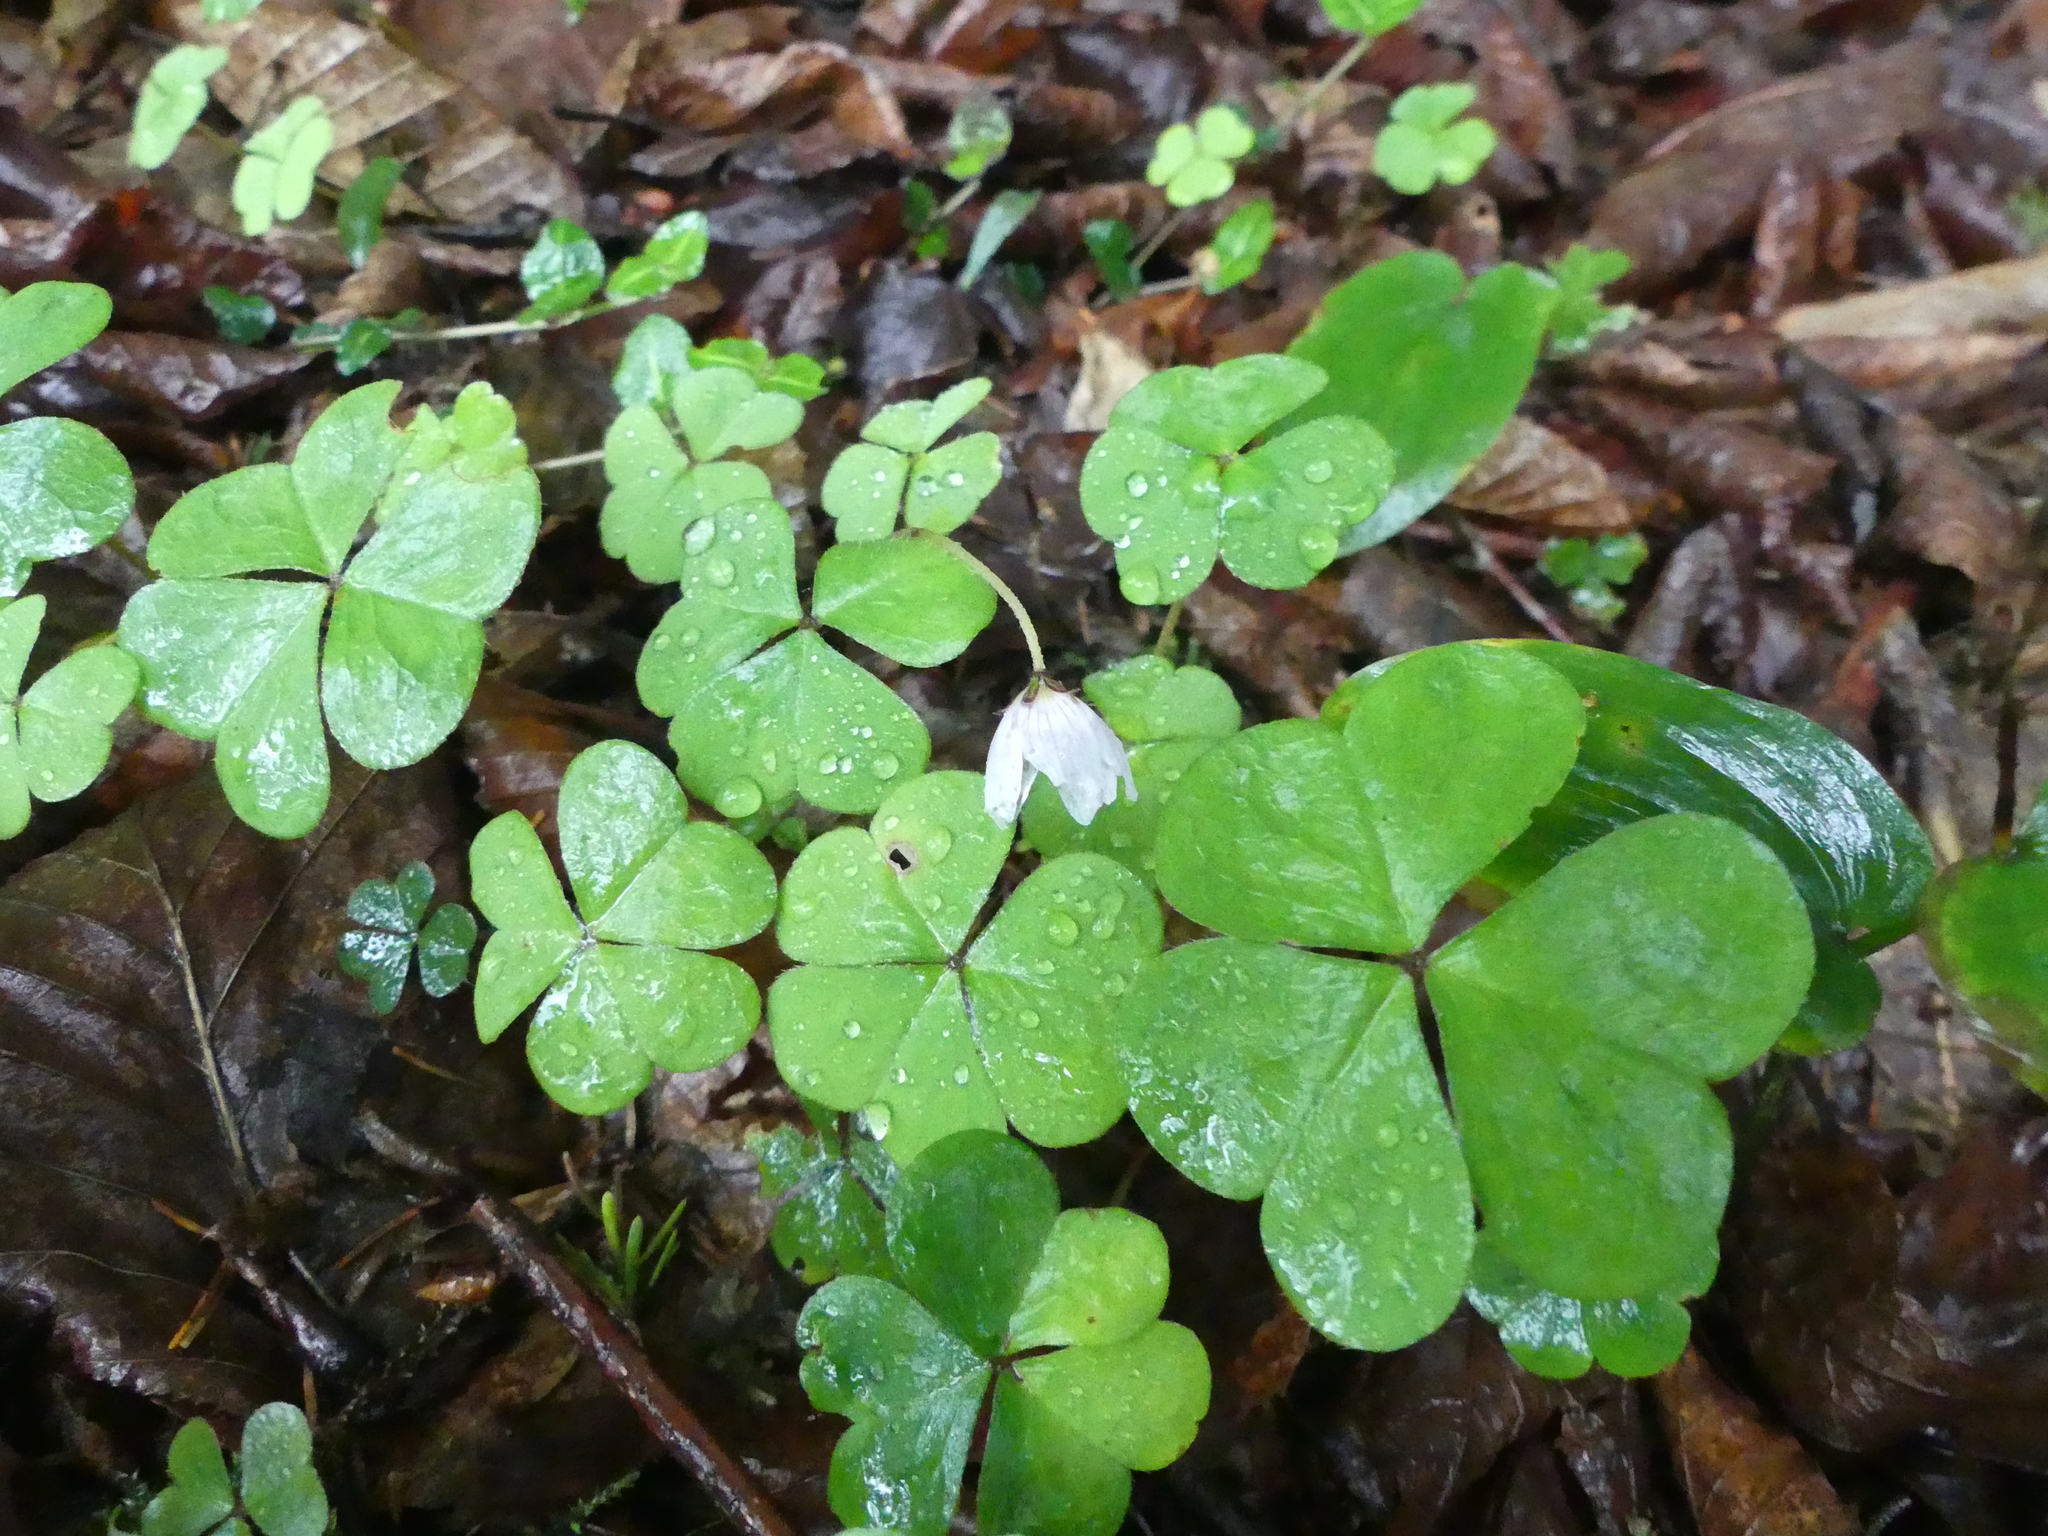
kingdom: Plantae
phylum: Tracheophyta
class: Magnoliopsida
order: Oxalidales
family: Oxalidaceae
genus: Oxalis
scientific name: Oxalis montana
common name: American wood-sorrel
